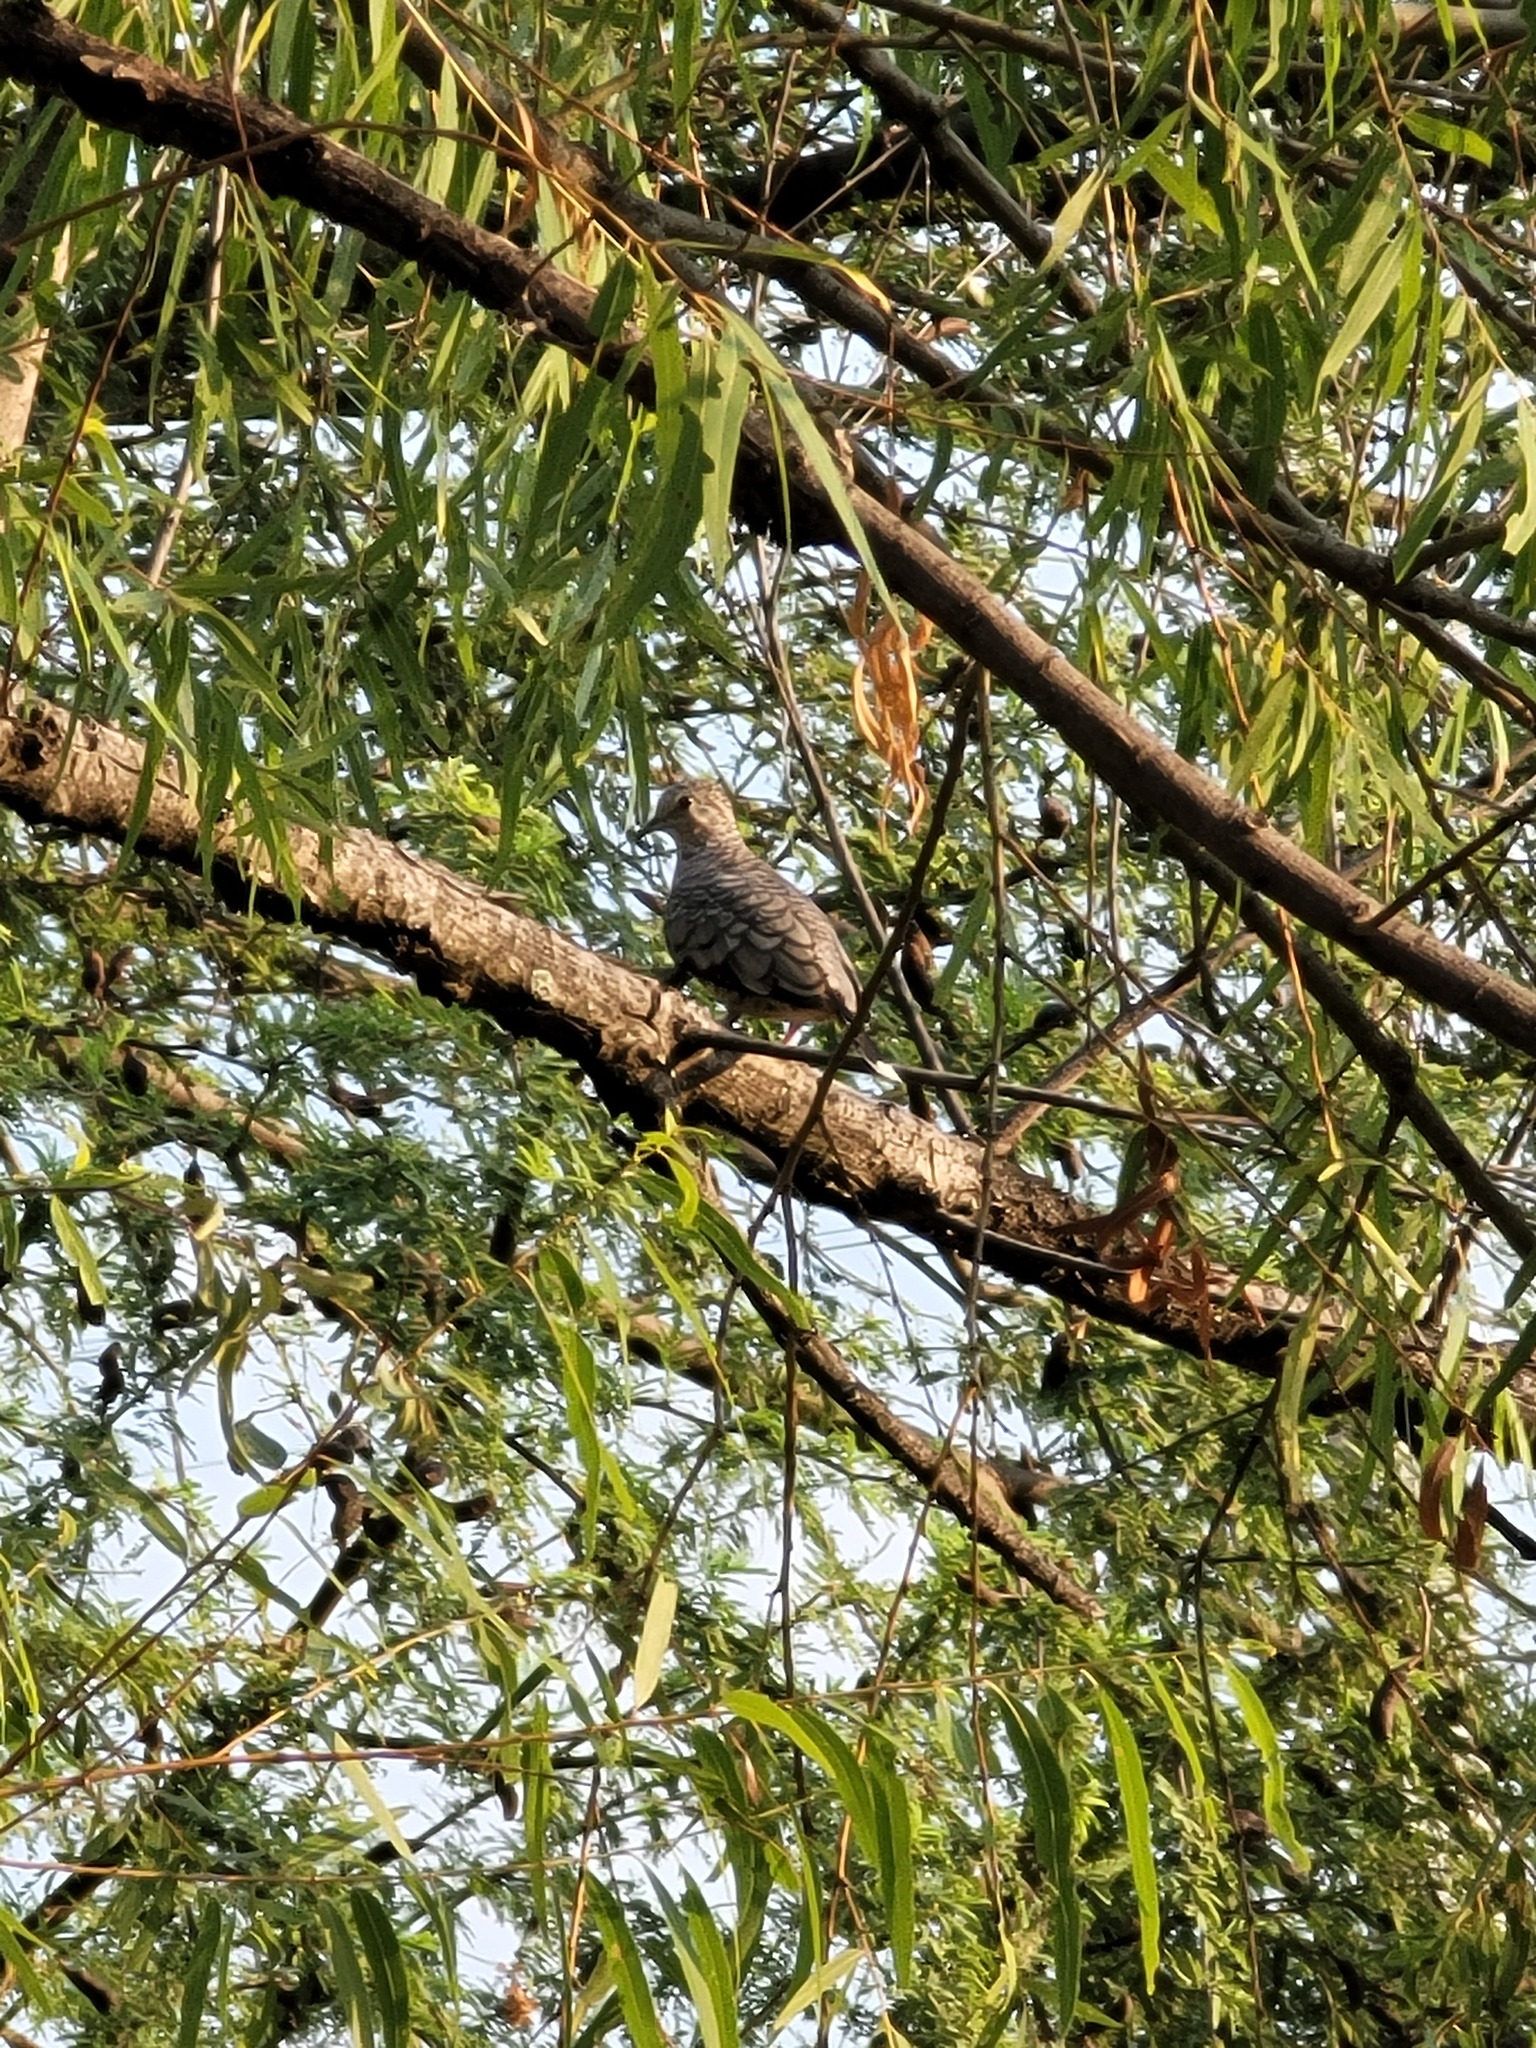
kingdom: Animalia
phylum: Chordata
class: Aves
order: Columbiformes
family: Columbidae
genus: Columbina
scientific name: Columbina inca
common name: Inca dove
